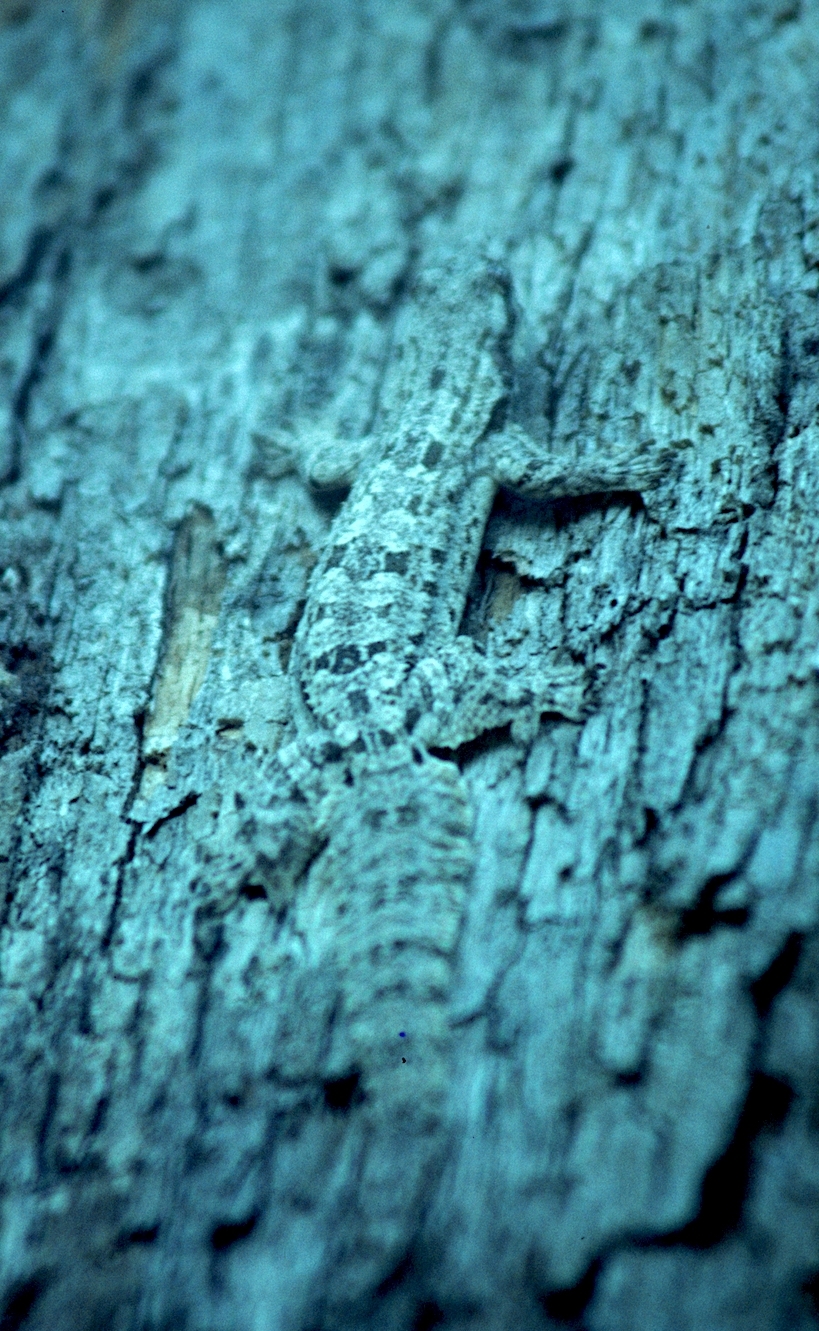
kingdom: Animalia
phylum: Chordata
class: Squamata
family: Gekkonidae
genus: Hemidactylus
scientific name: Hemidactylus craspedotus
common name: Frilled gecko
